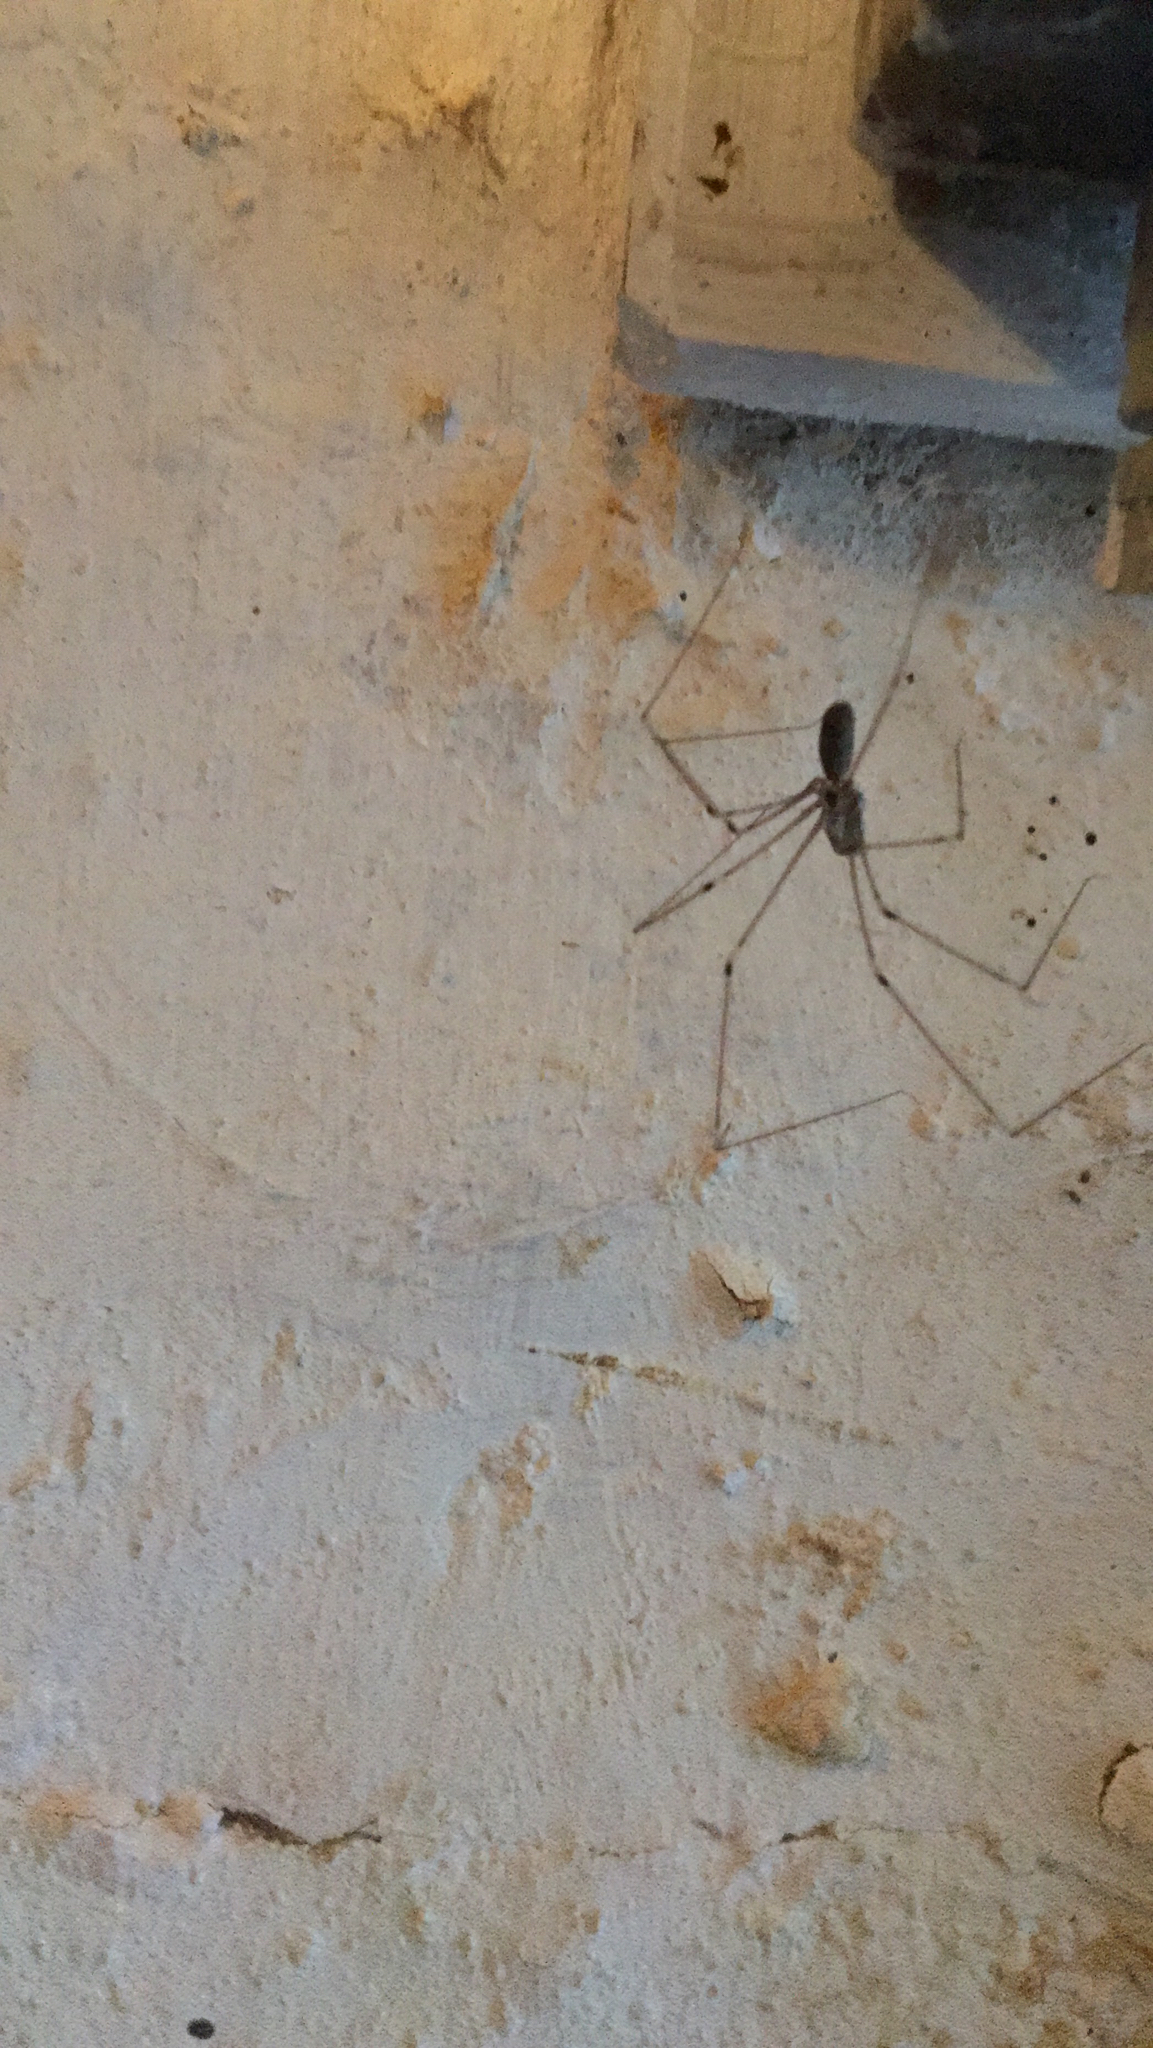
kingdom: Animalia
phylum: Arthropoda
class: Arachnida
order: Araneae
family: Pholcidae
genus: Pholcus
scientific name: Pholcus phalangioides
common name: Longbodied cellar spider
